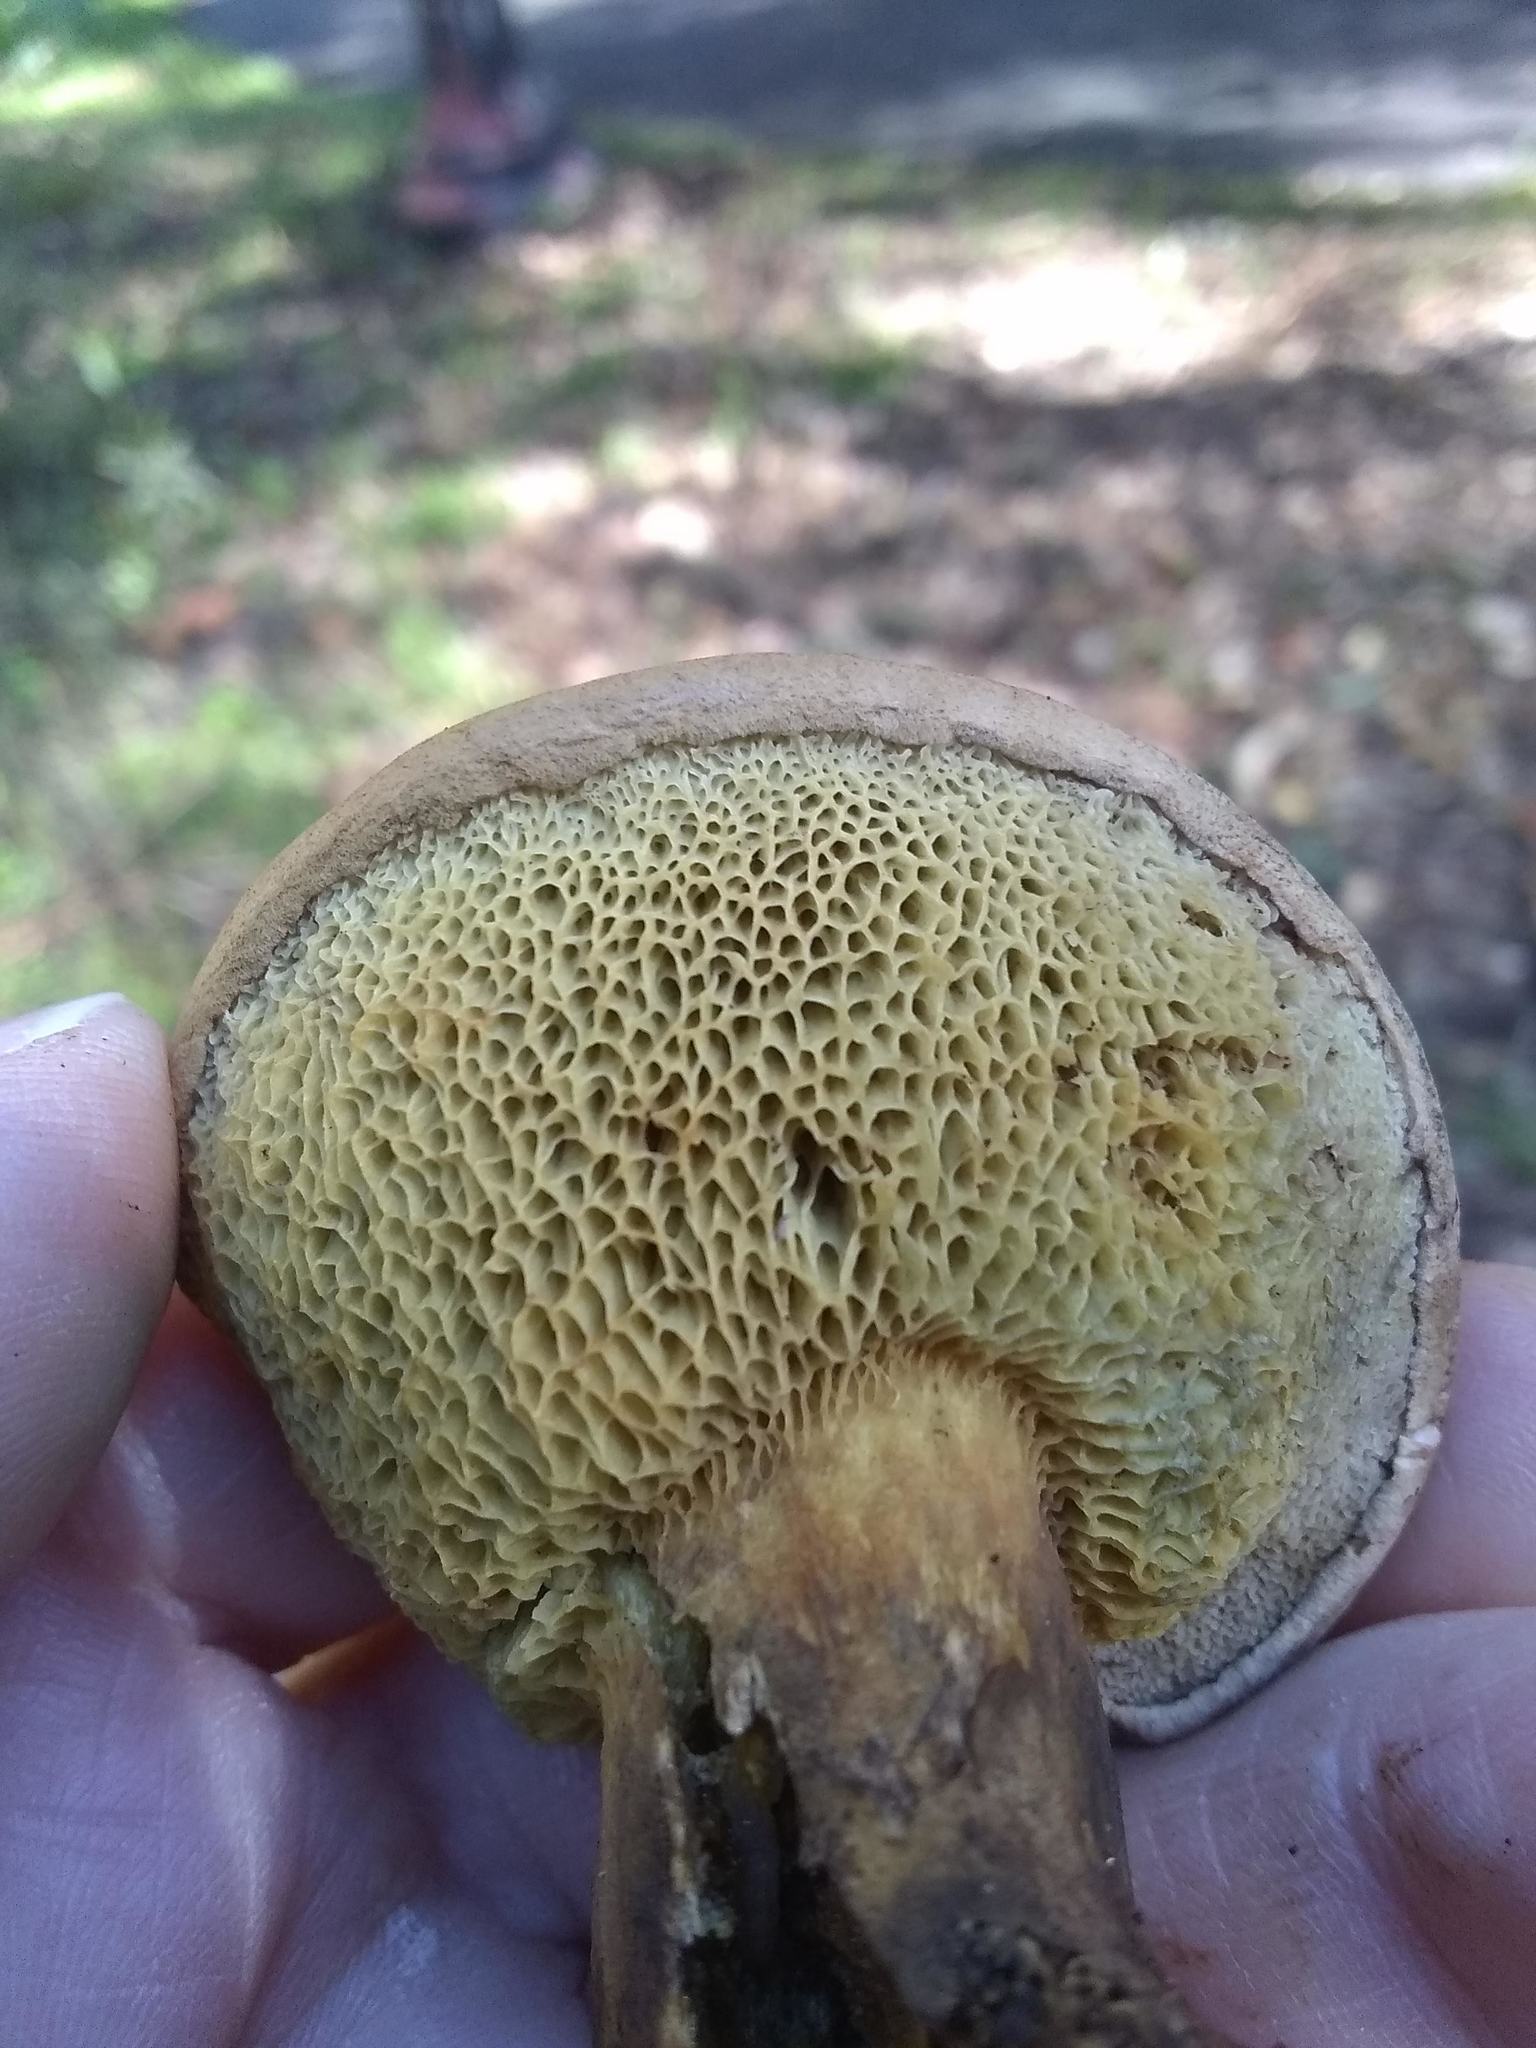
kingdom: Fungi
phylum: Basidiomycota
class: Agaricomycetes
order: Boletales
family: Boletaceae
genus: Xerocomellus
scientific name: Xerocomellus dryophilus
